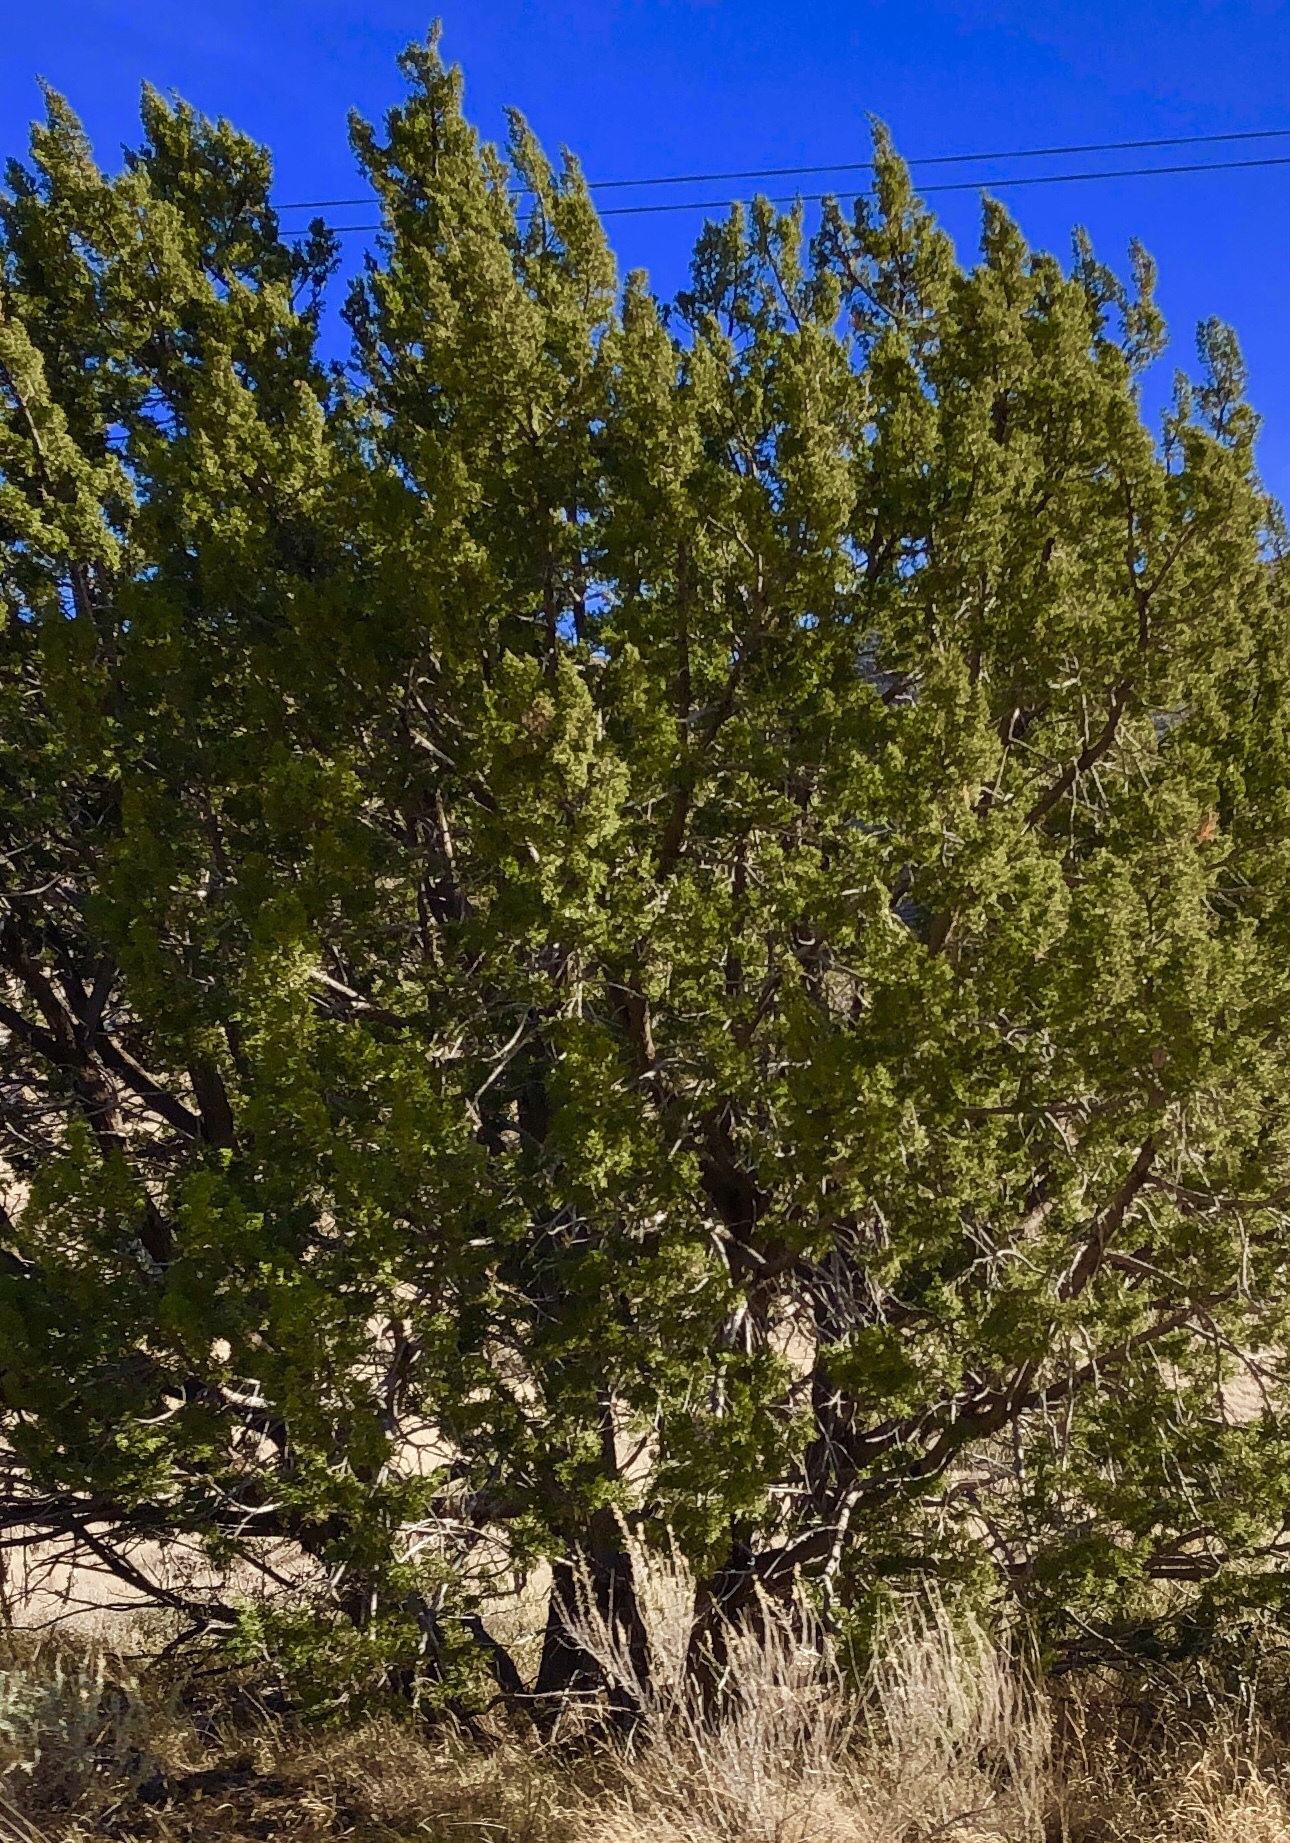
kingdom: Plantae
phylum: Tracheophyta
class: Pinopsida
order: Pinales
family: Cupressaceae
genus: Juniperus
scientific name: Juniperus monosperma
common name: One-seed juniper
